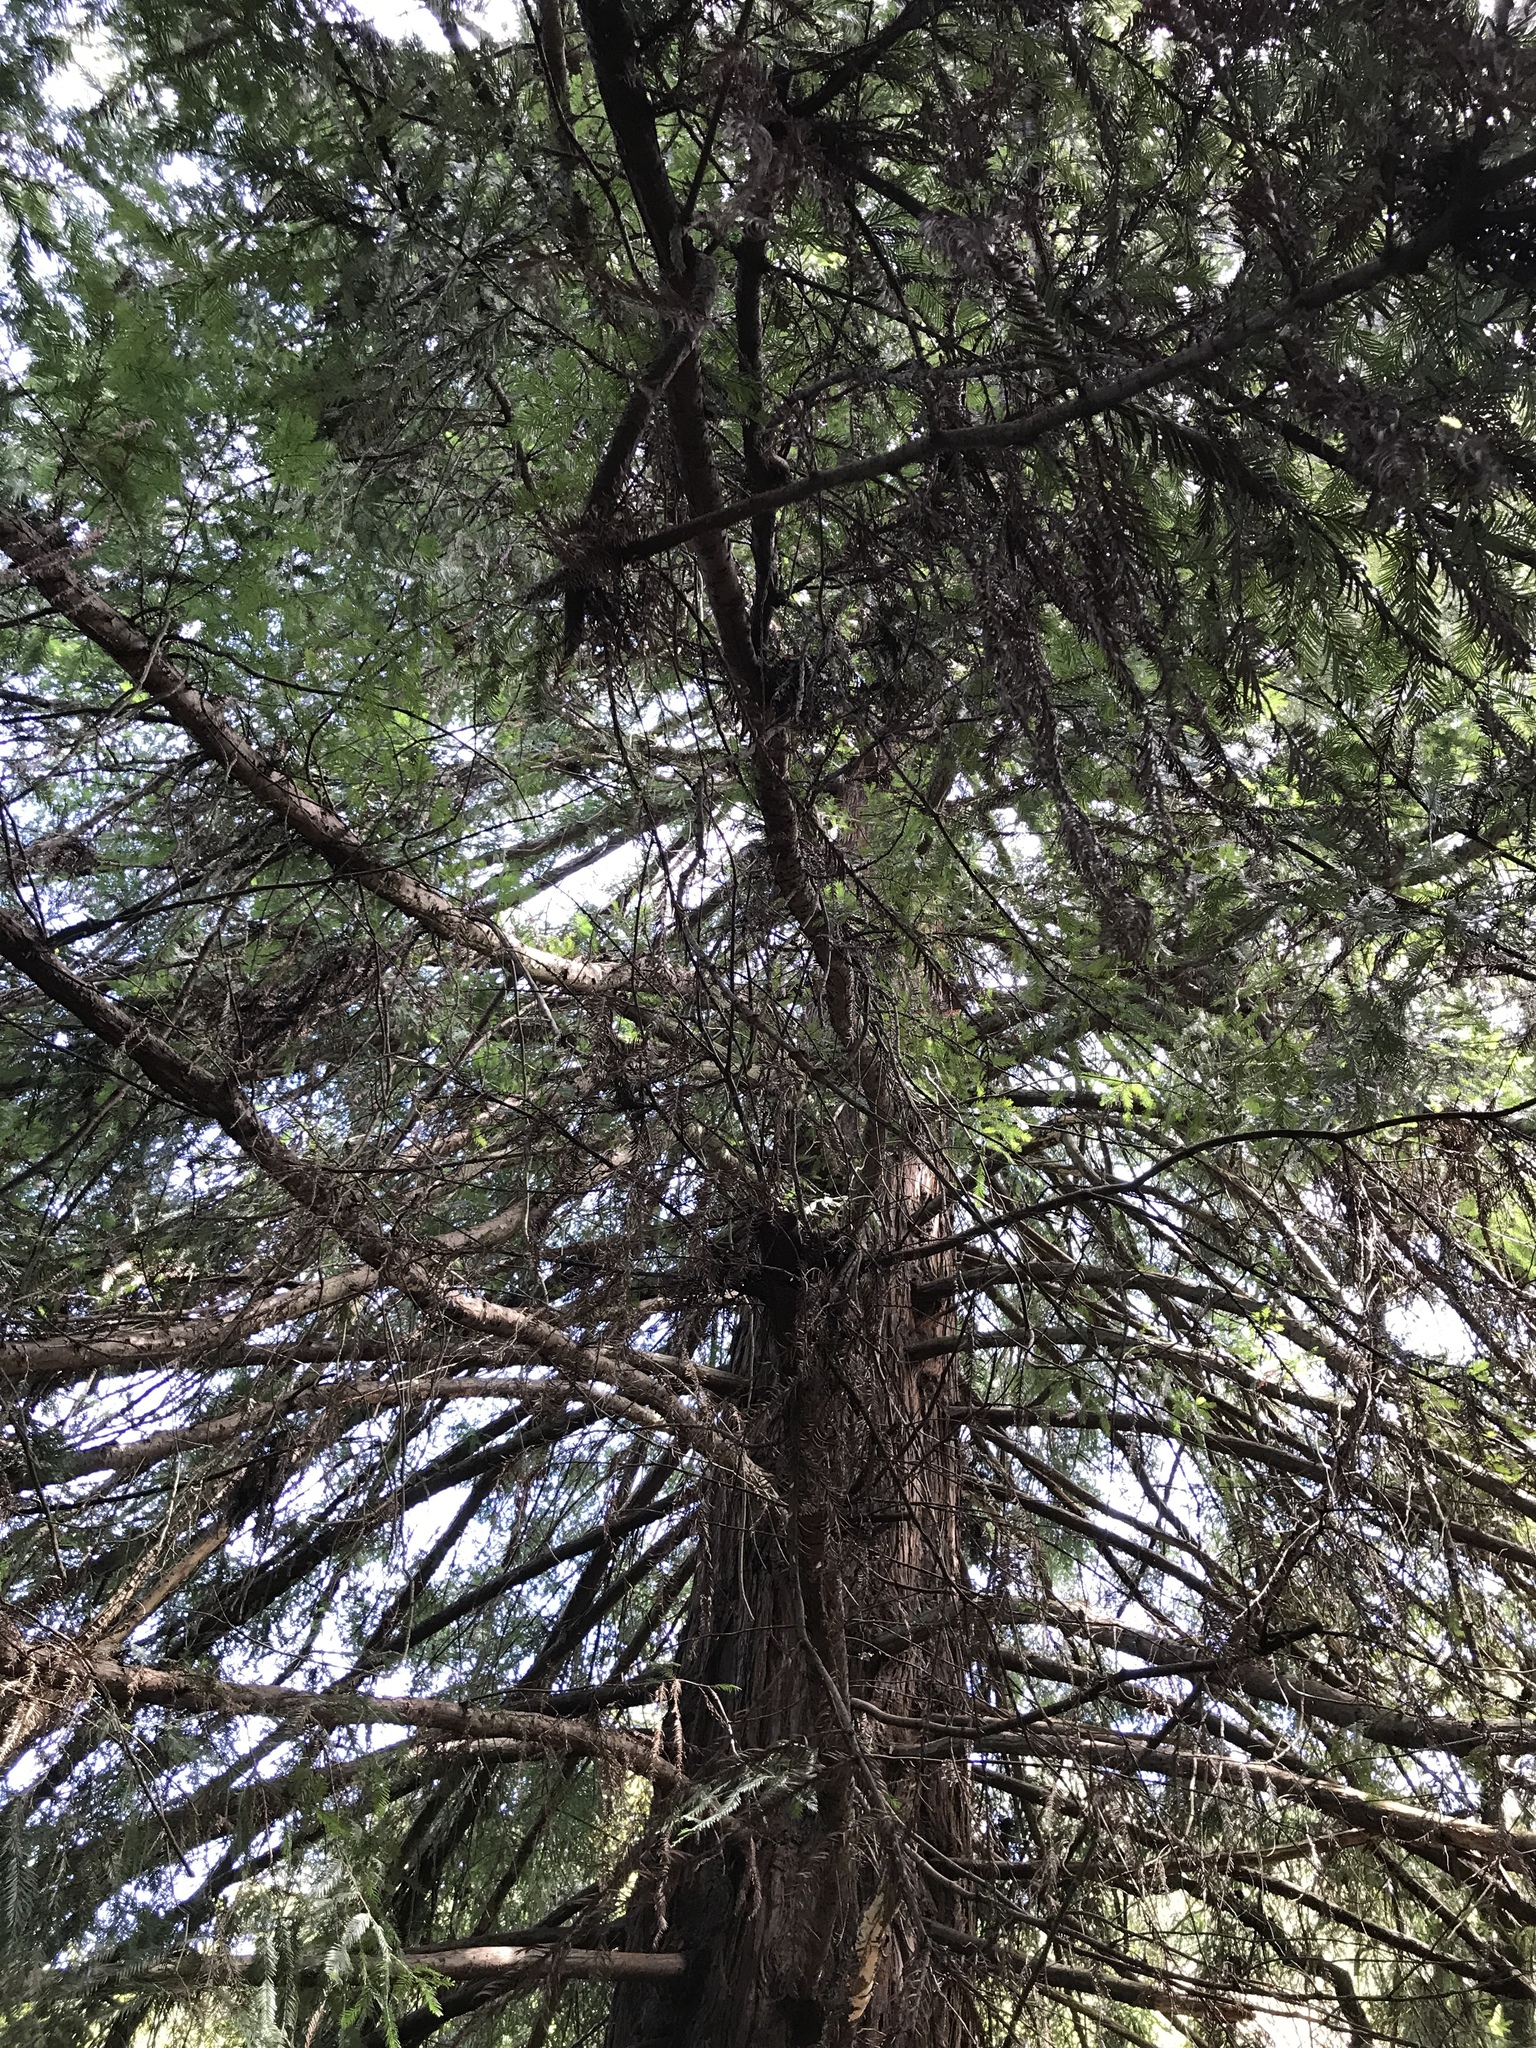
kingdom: Plantae
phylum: Tracheophyta
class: Pinopsida
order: Pinales
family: Cupressaceae
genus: Sequoia
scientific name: Sequoia sempervirens
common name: Coast redwood
